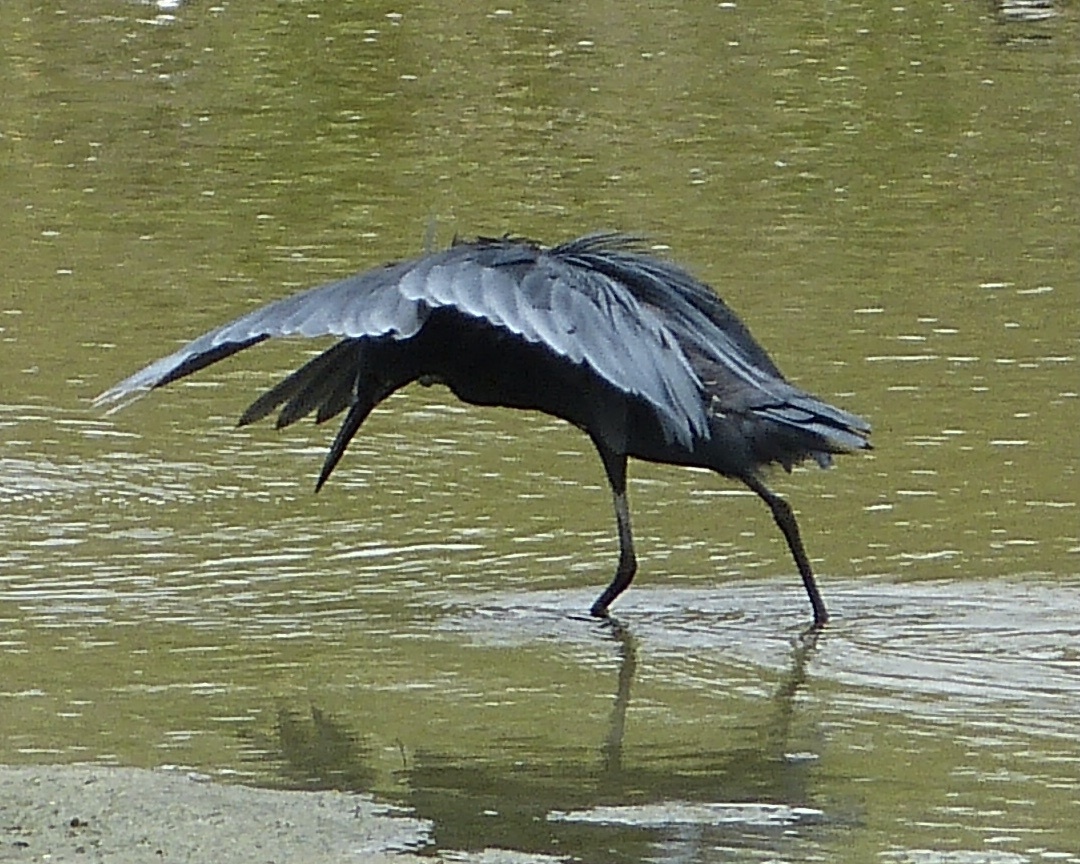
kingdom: Animalia
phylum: Chordata
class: Aves
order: Pelecaniformes
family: Ardeidae
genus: Egretta
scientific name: Egretta ardesiaca
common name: Black heron
